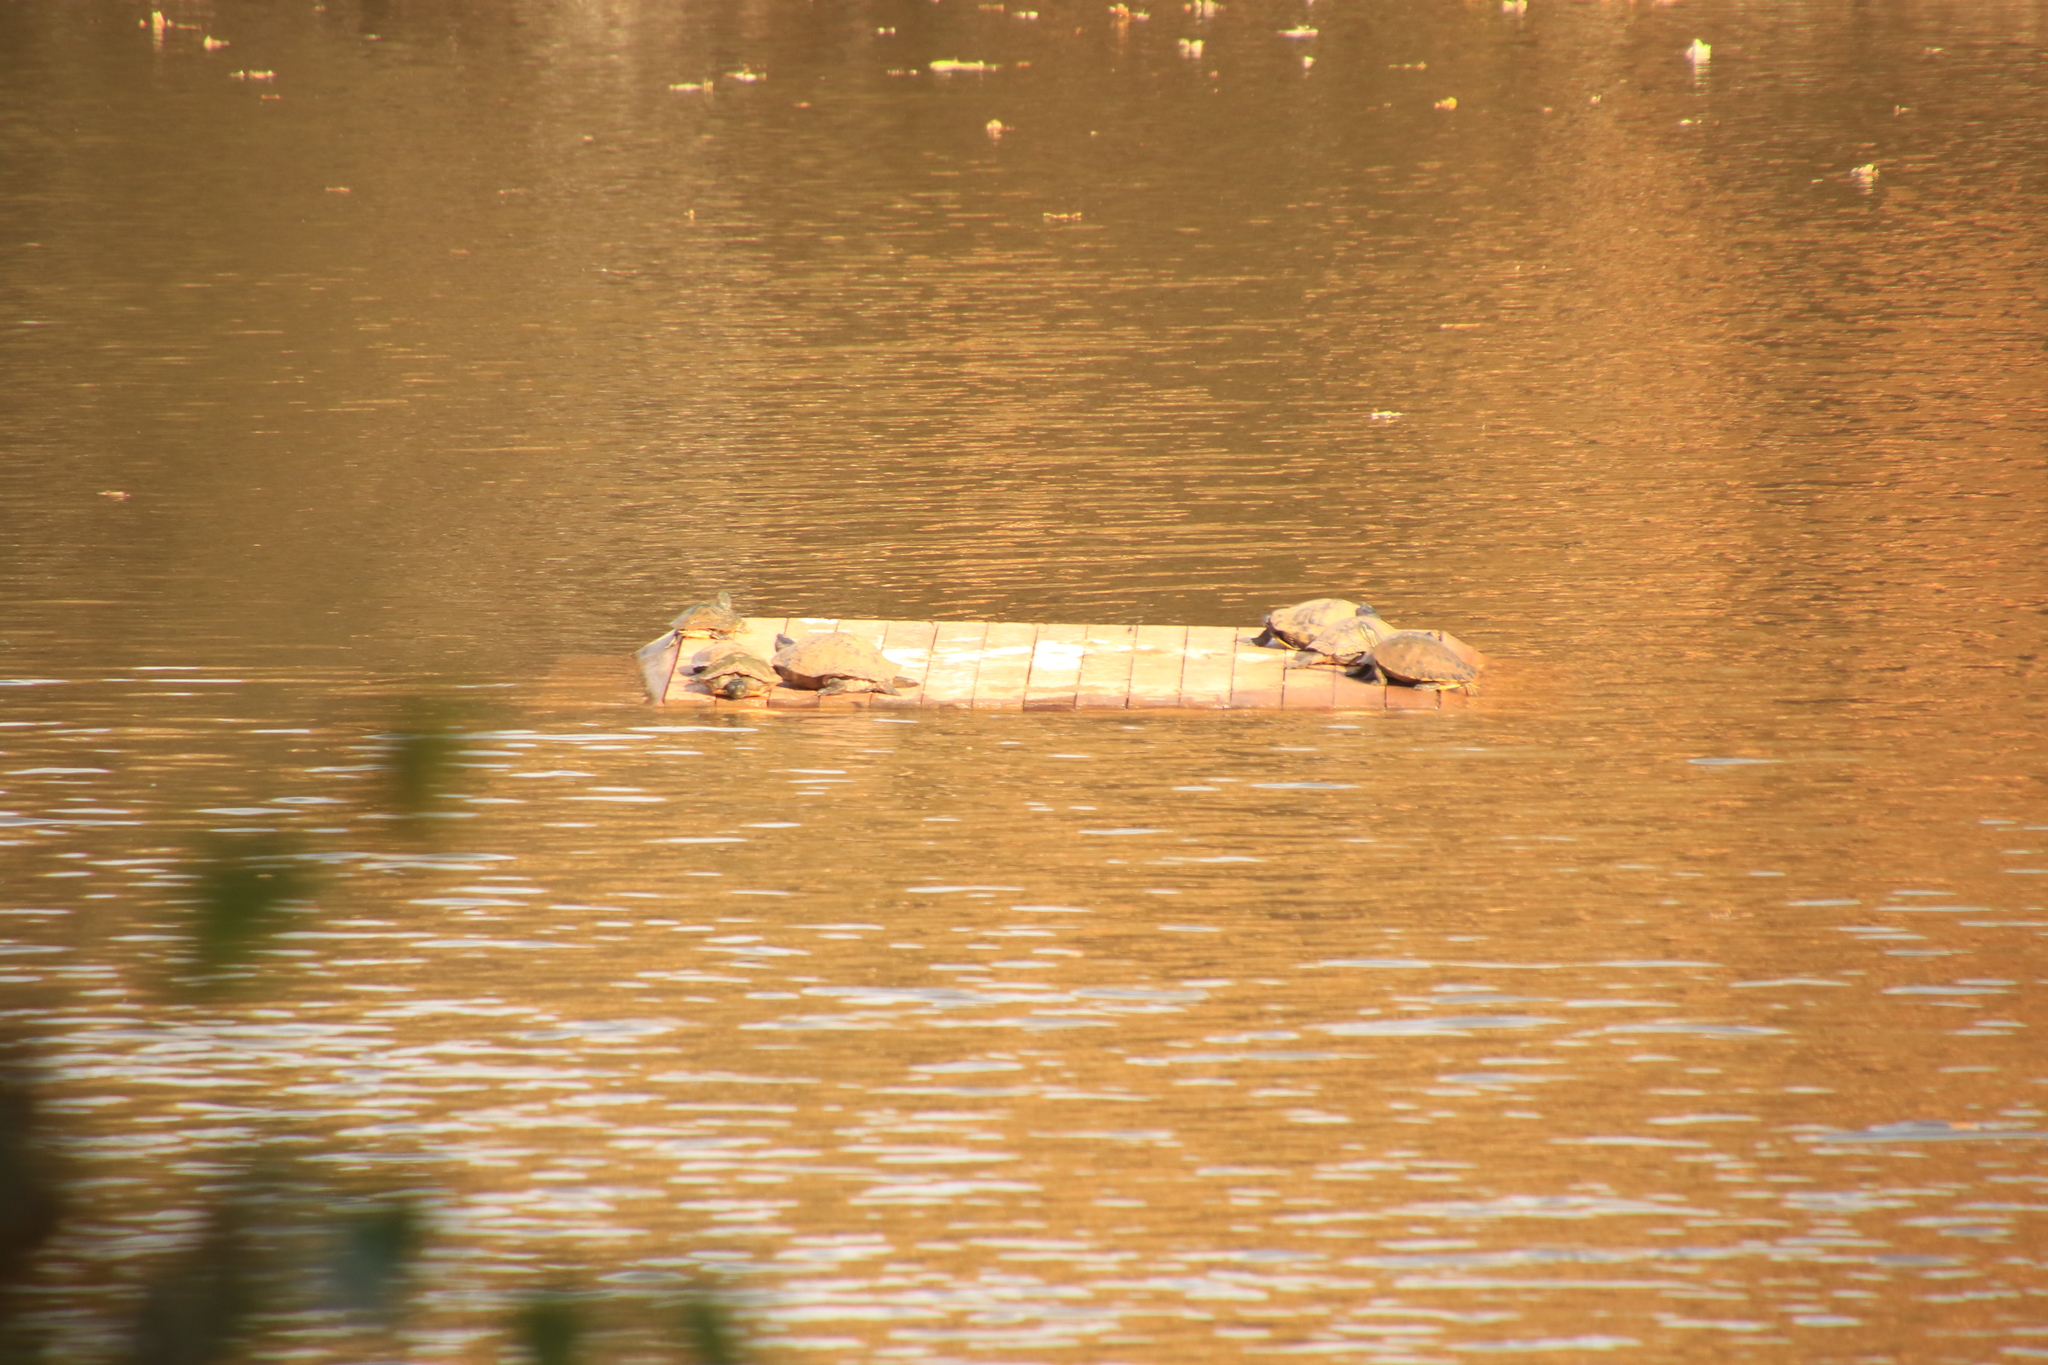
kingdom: Animalia
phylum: Chordata
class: Testudines
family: Emydidae
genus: Pseudemys
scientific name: Pseudemys concinna
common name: Eastern river cooter
